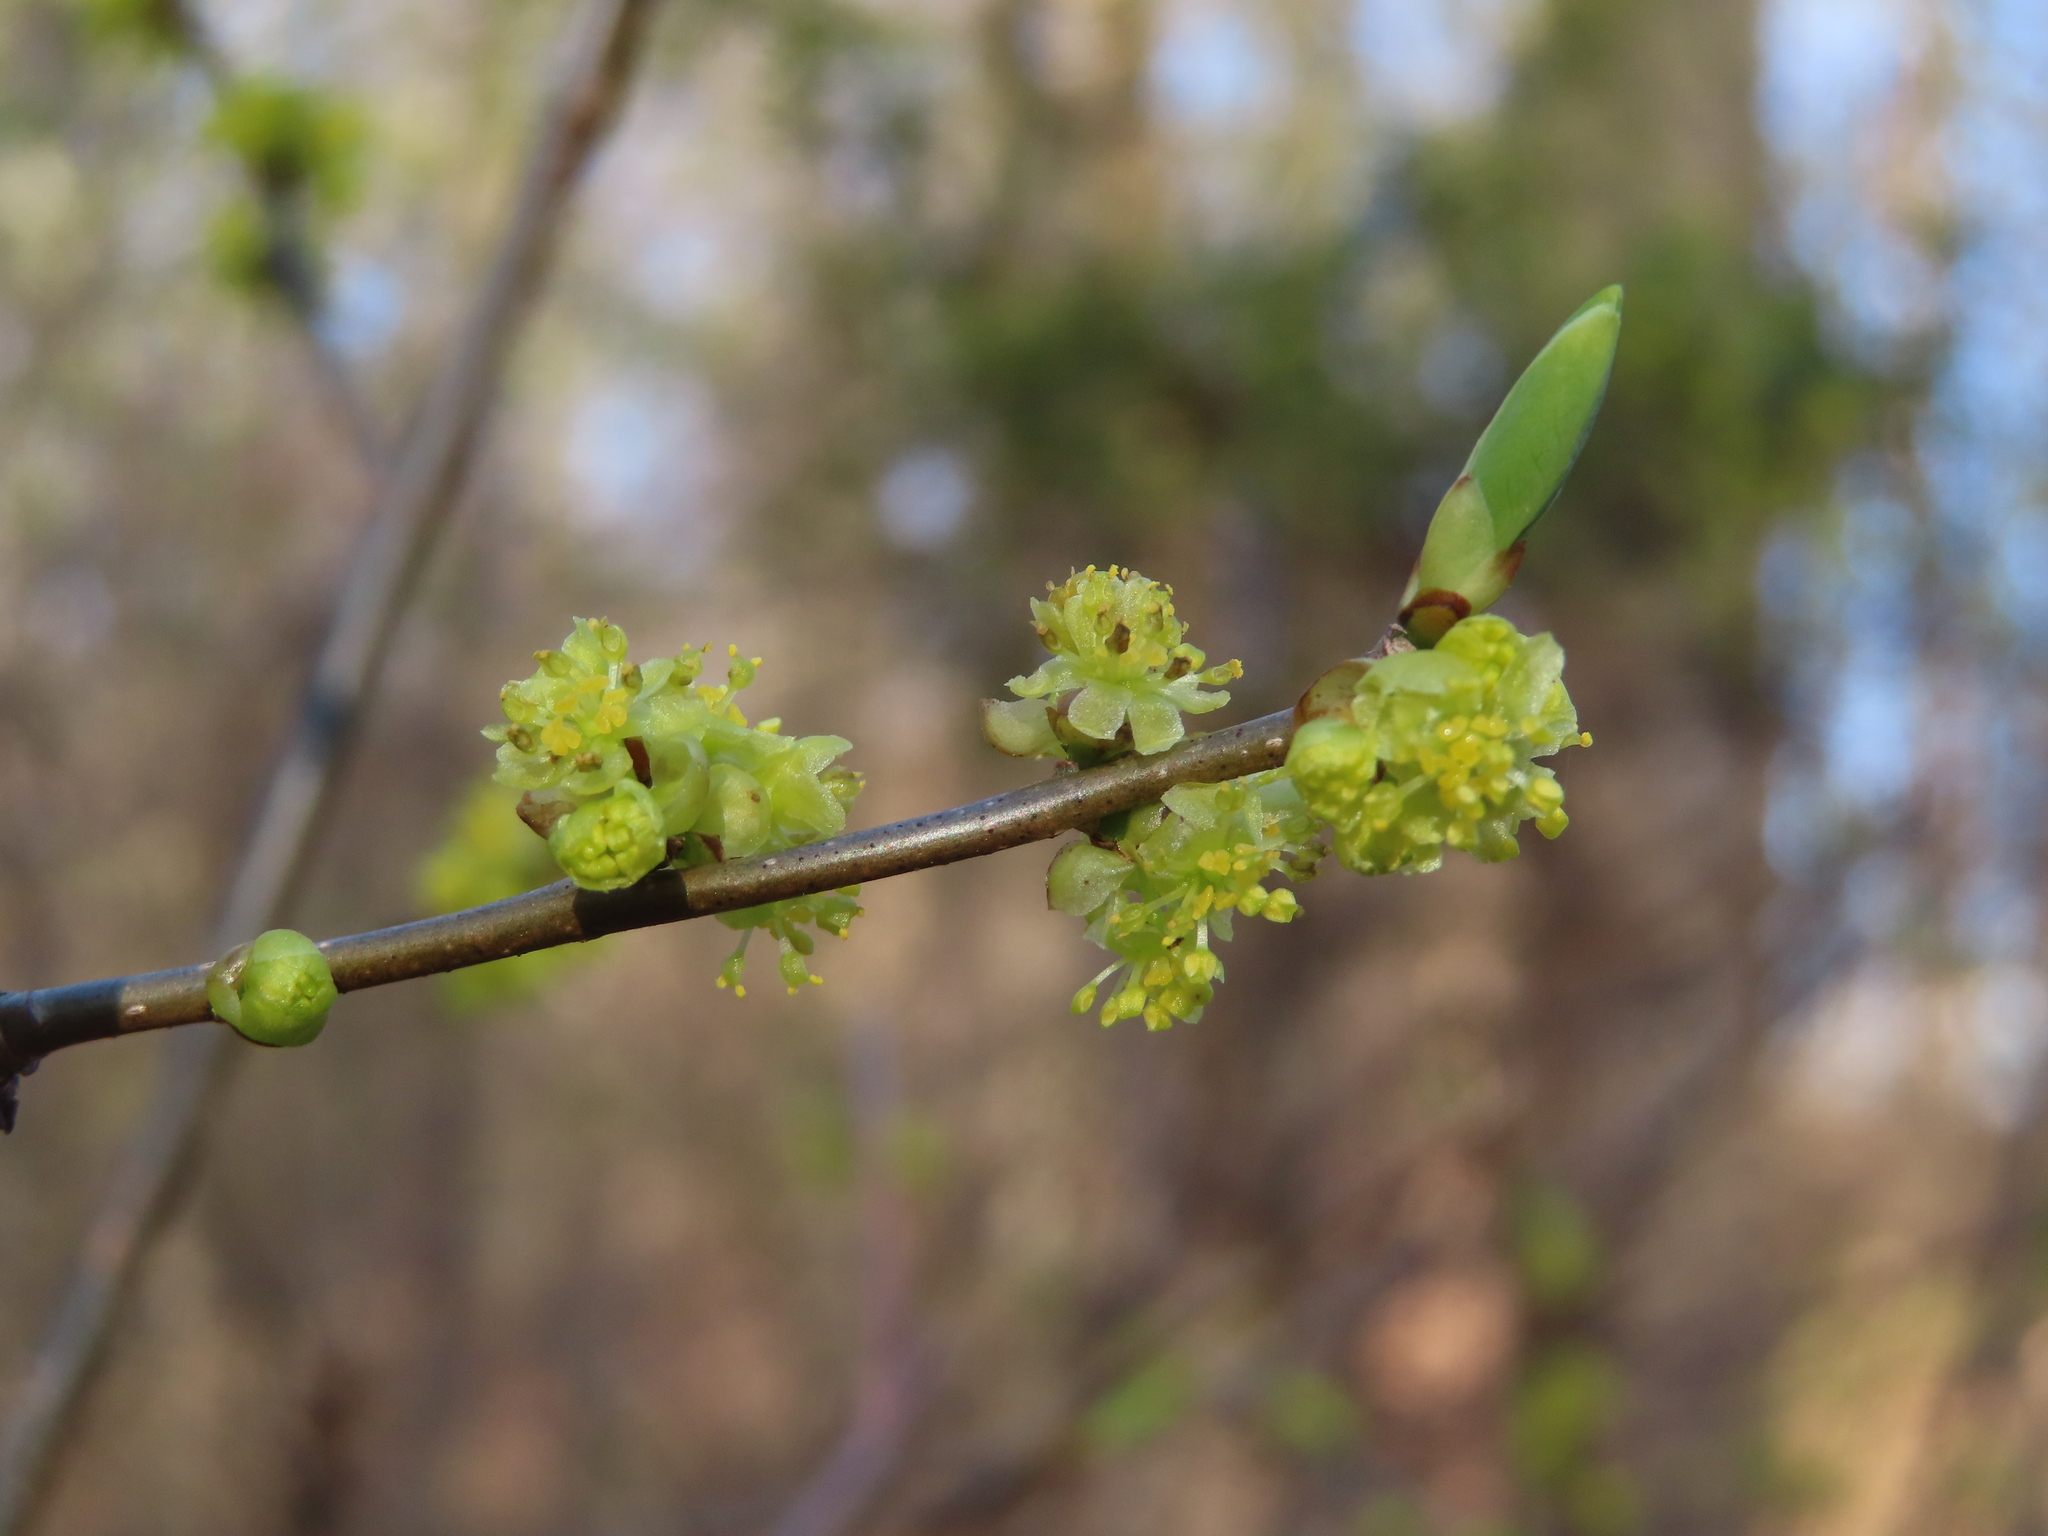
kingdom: Plantae
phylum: Tracheophyta
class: Magnoliopsida
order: Laurales
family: Lauraceae
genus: Lindera
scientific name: Lindera benzoin
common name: Spicebush
